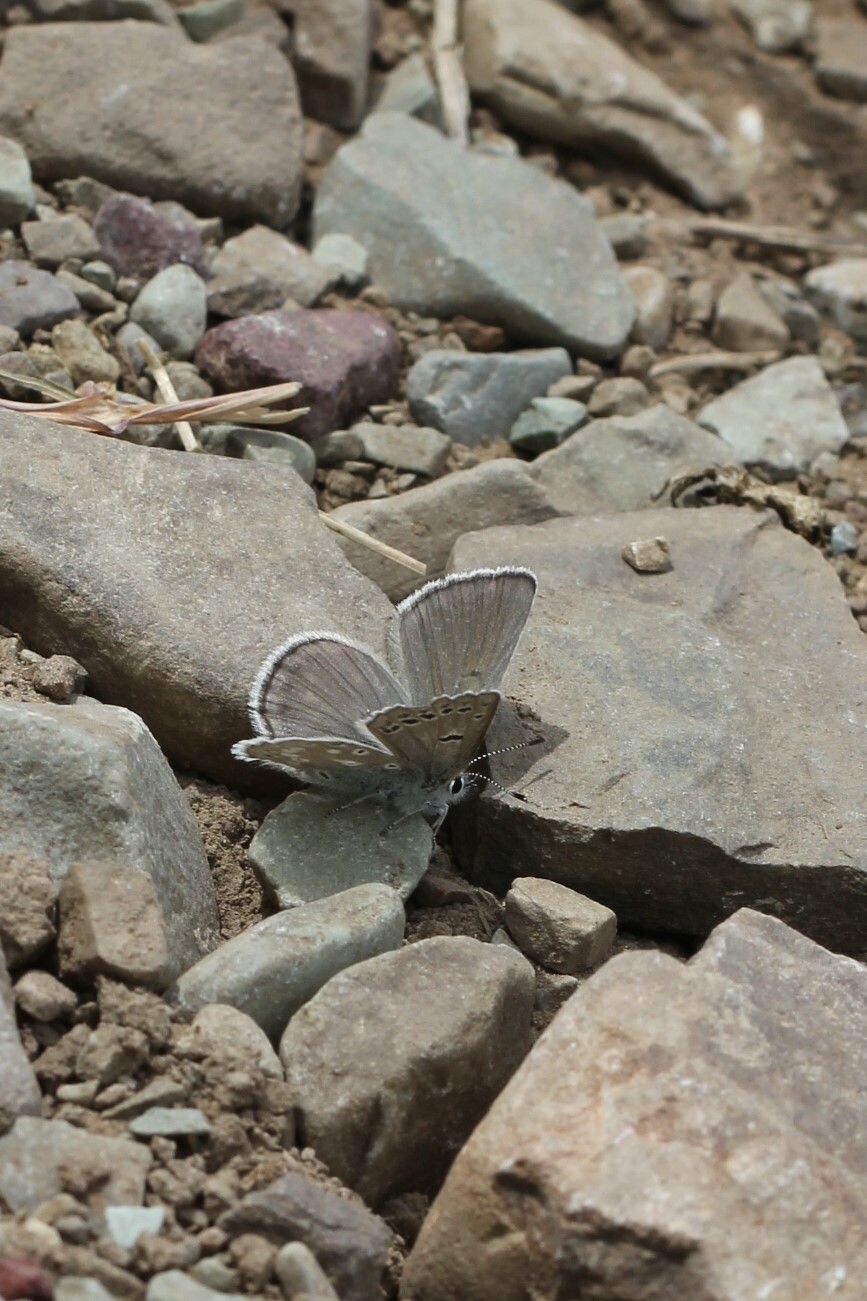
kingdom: Animalia
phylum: Arthropoda
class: Insecta
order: Lepidoptera
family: Lycaenidae
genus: Icaricia
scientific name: Icaricia icarioides
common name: Boisduval's blue
